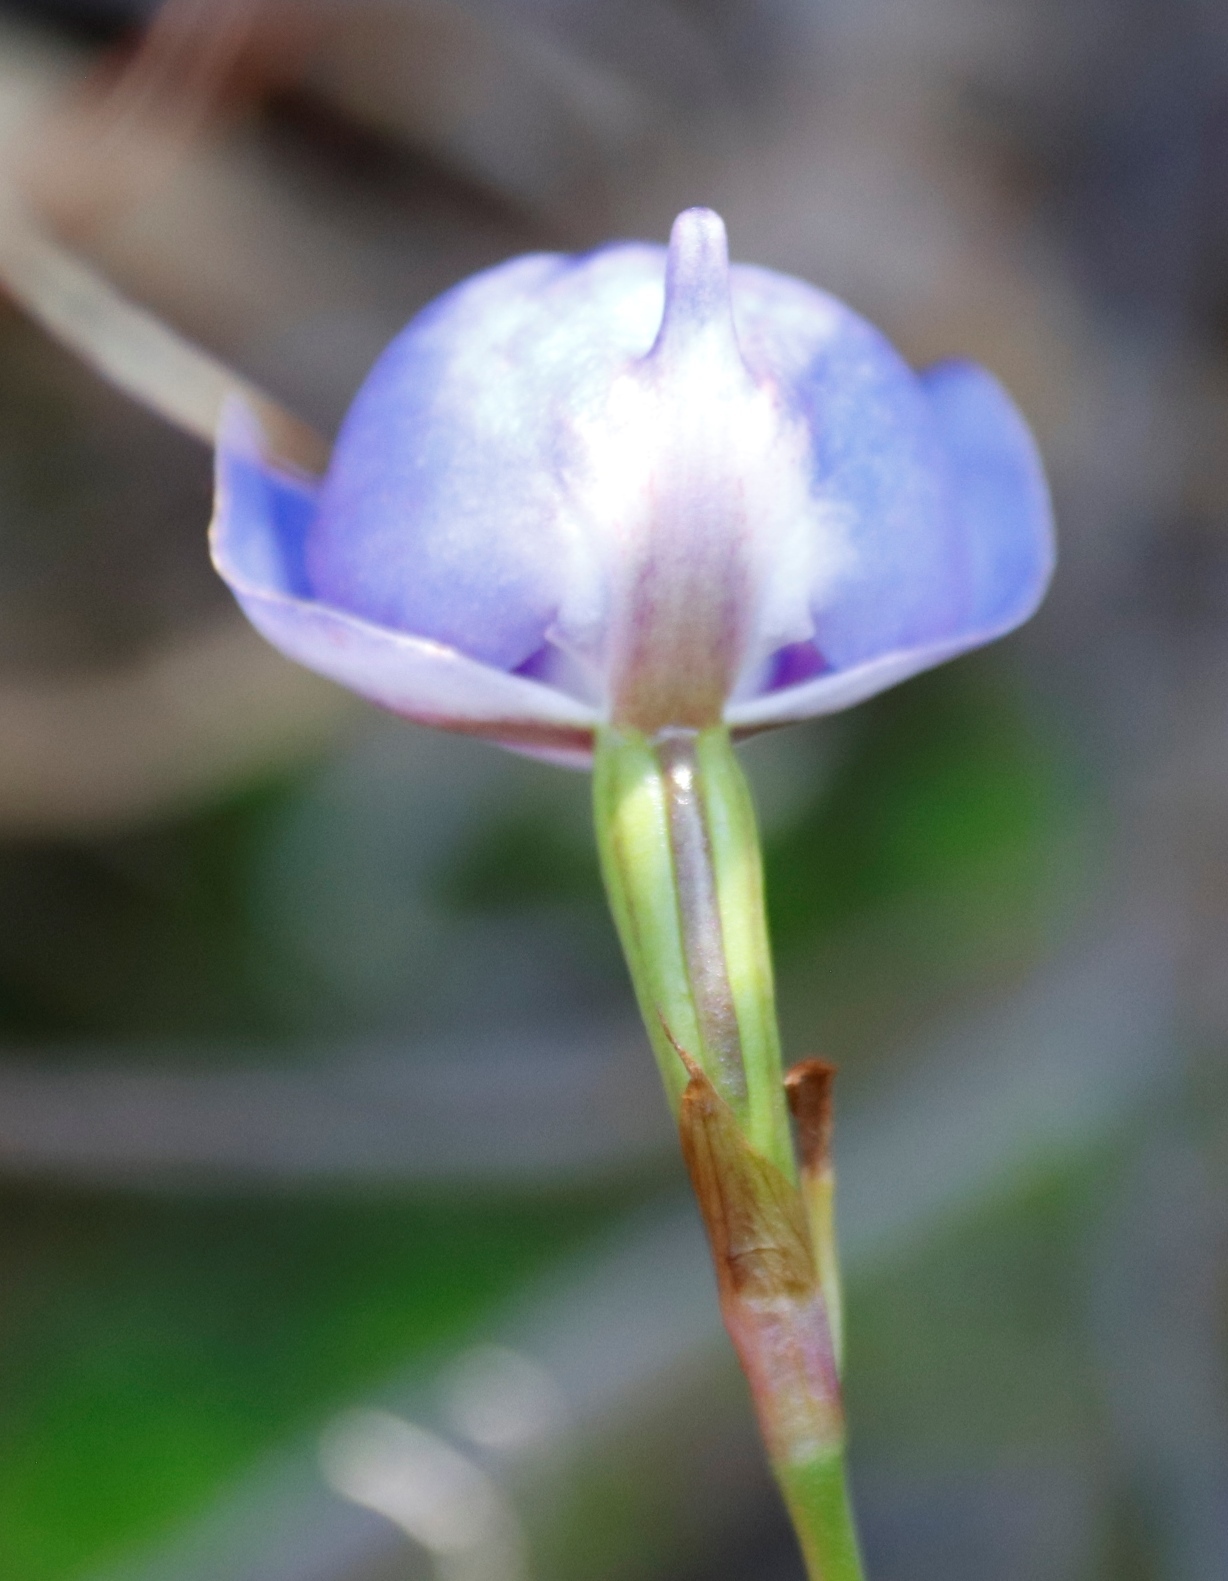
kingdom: Plantae
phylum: Tracheophyta
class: Liliopsida
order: Asparagales
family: Orchidaceae
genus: Disa
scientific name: Disa graminifolia
